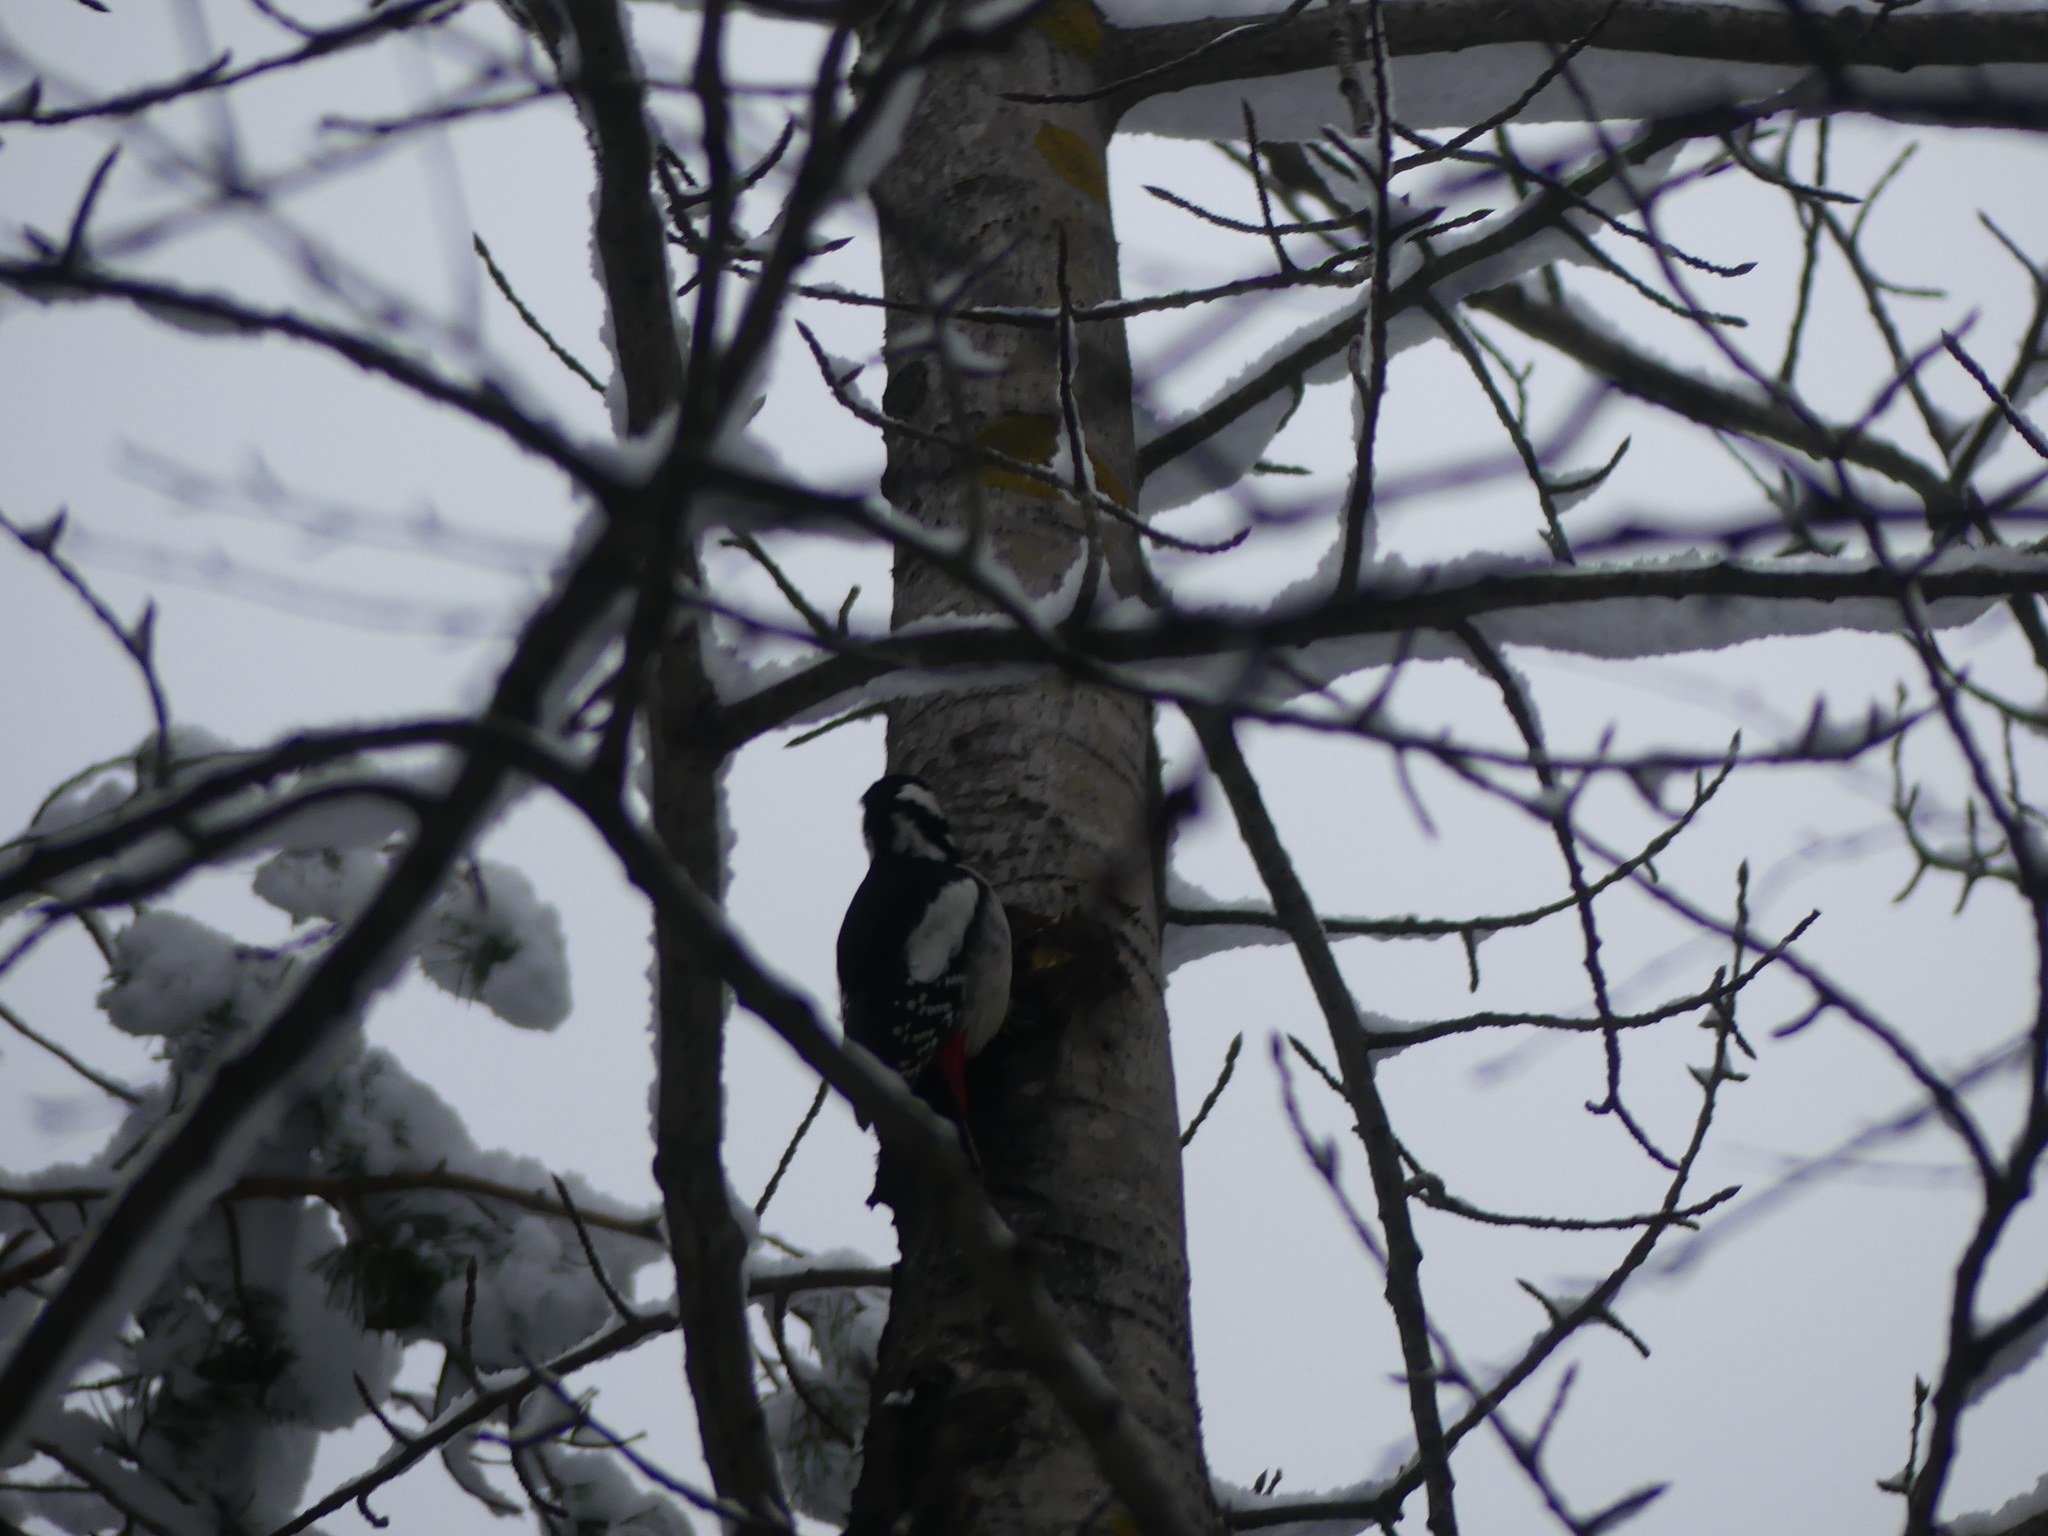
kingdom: Animalia
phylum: Chordata
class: Aves
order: Piciformes
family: Picidae
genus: Dendrocopos
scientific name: Dendrocopos major
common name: Great spotted woodpecker
